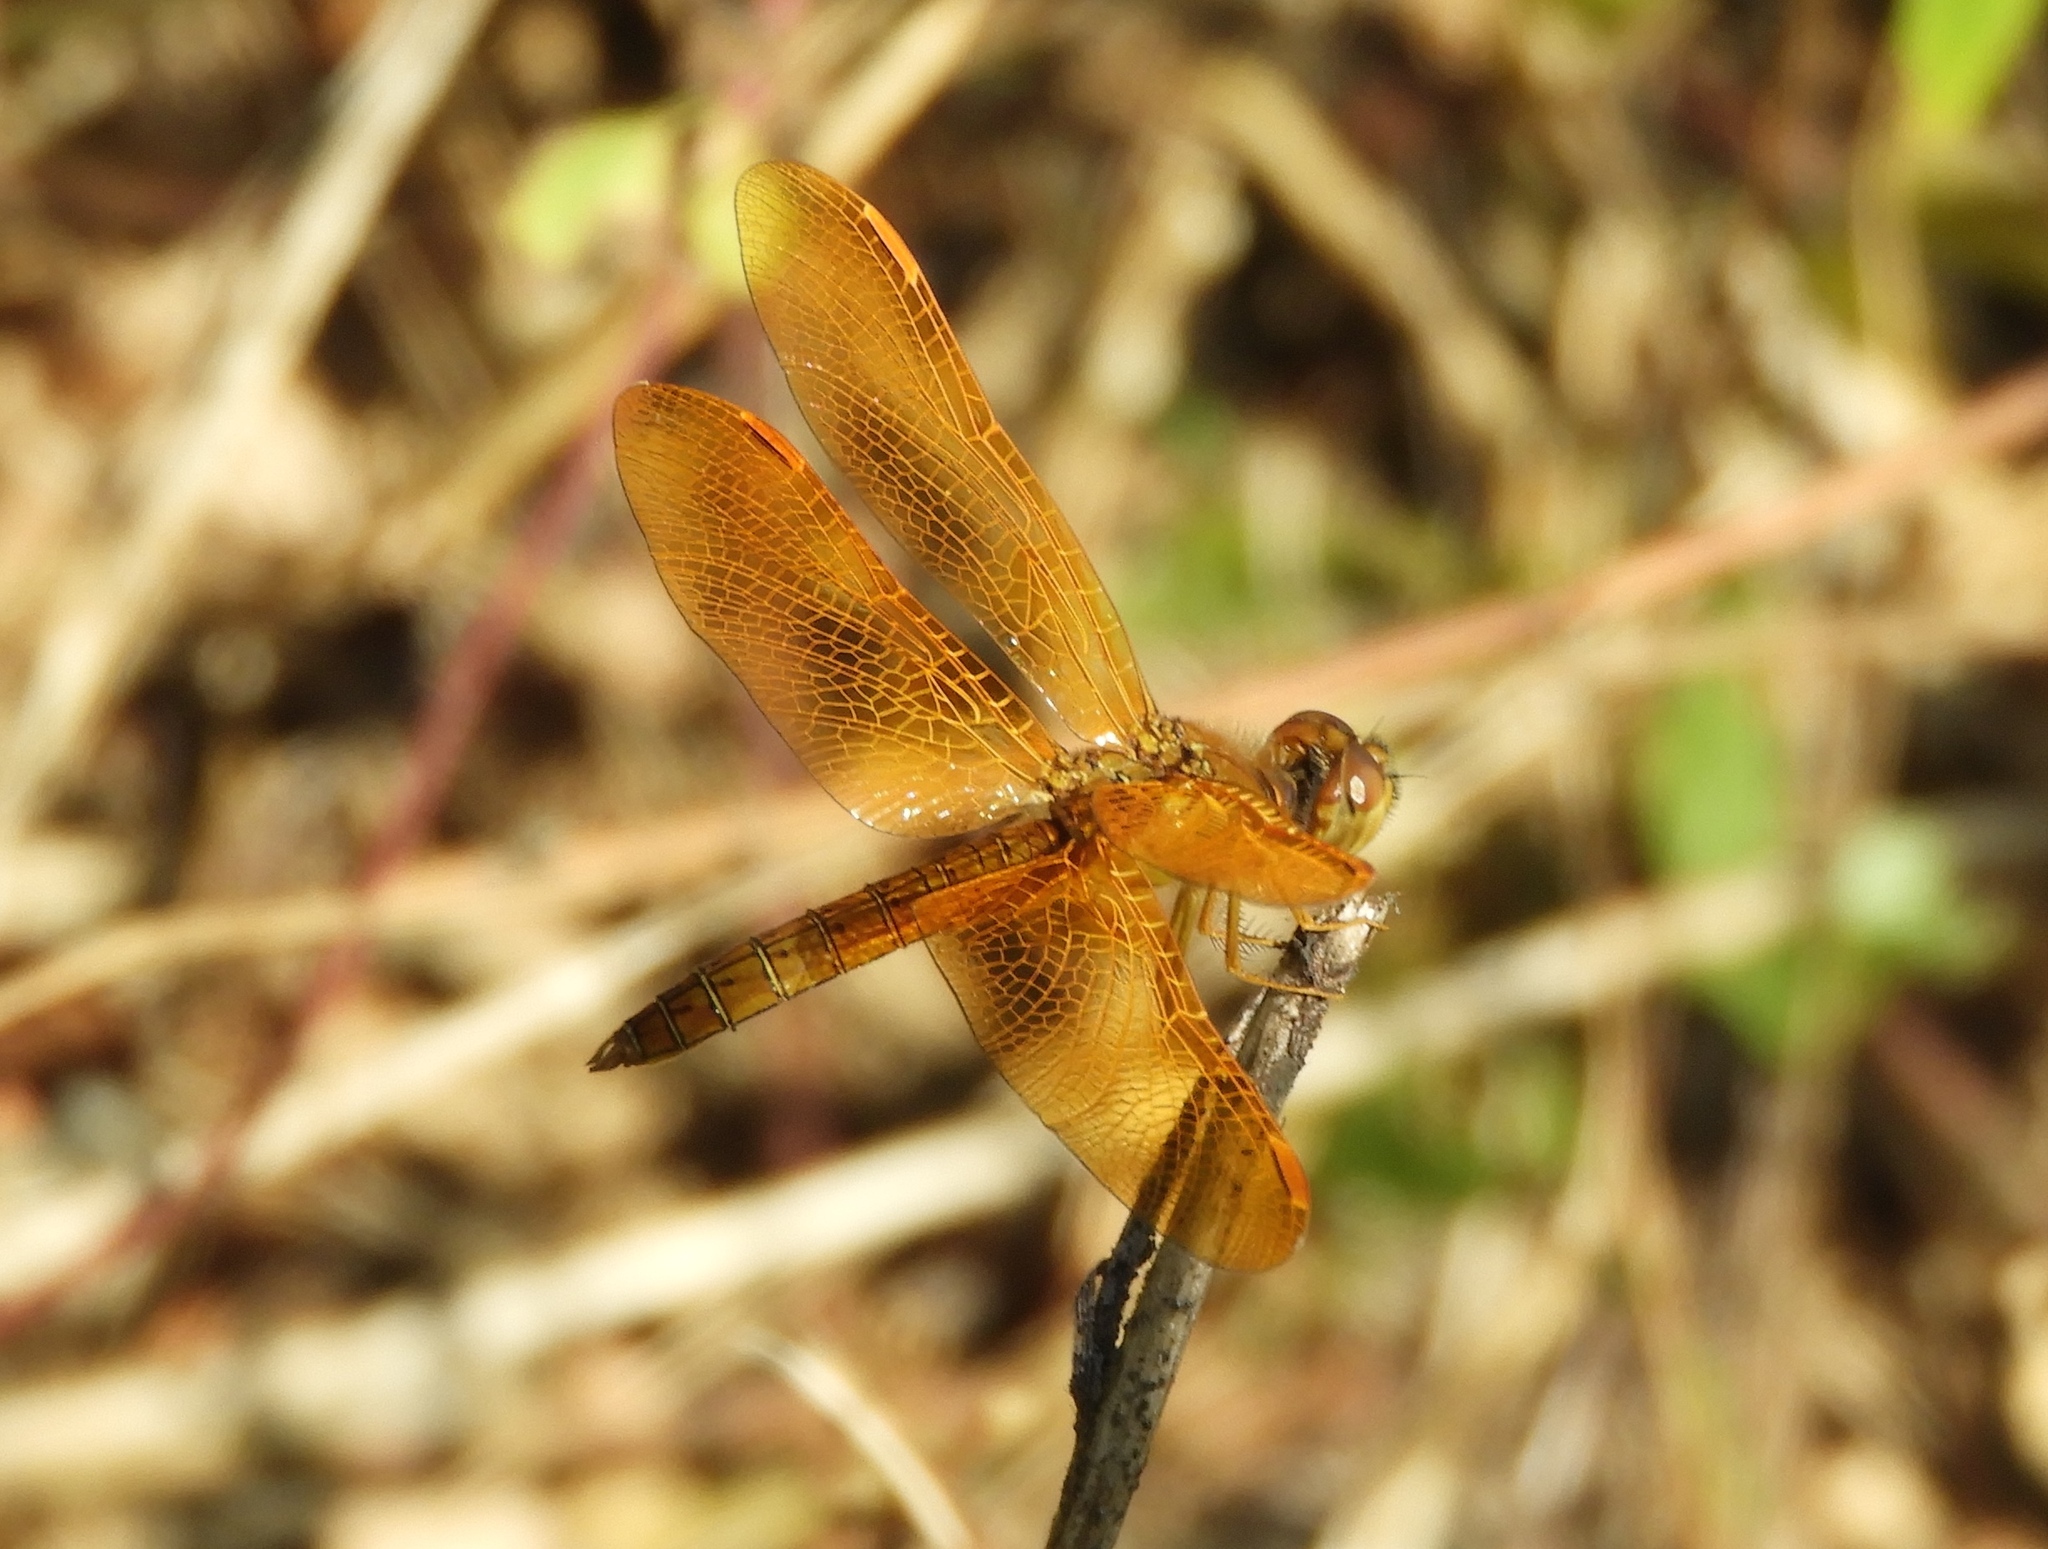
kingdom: Animalia
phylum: Arthropoda
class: Insecta
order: Odonata
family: Libellulidae
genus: Perithemis
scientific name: Perithemis intensa
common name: Mexican amberwing
